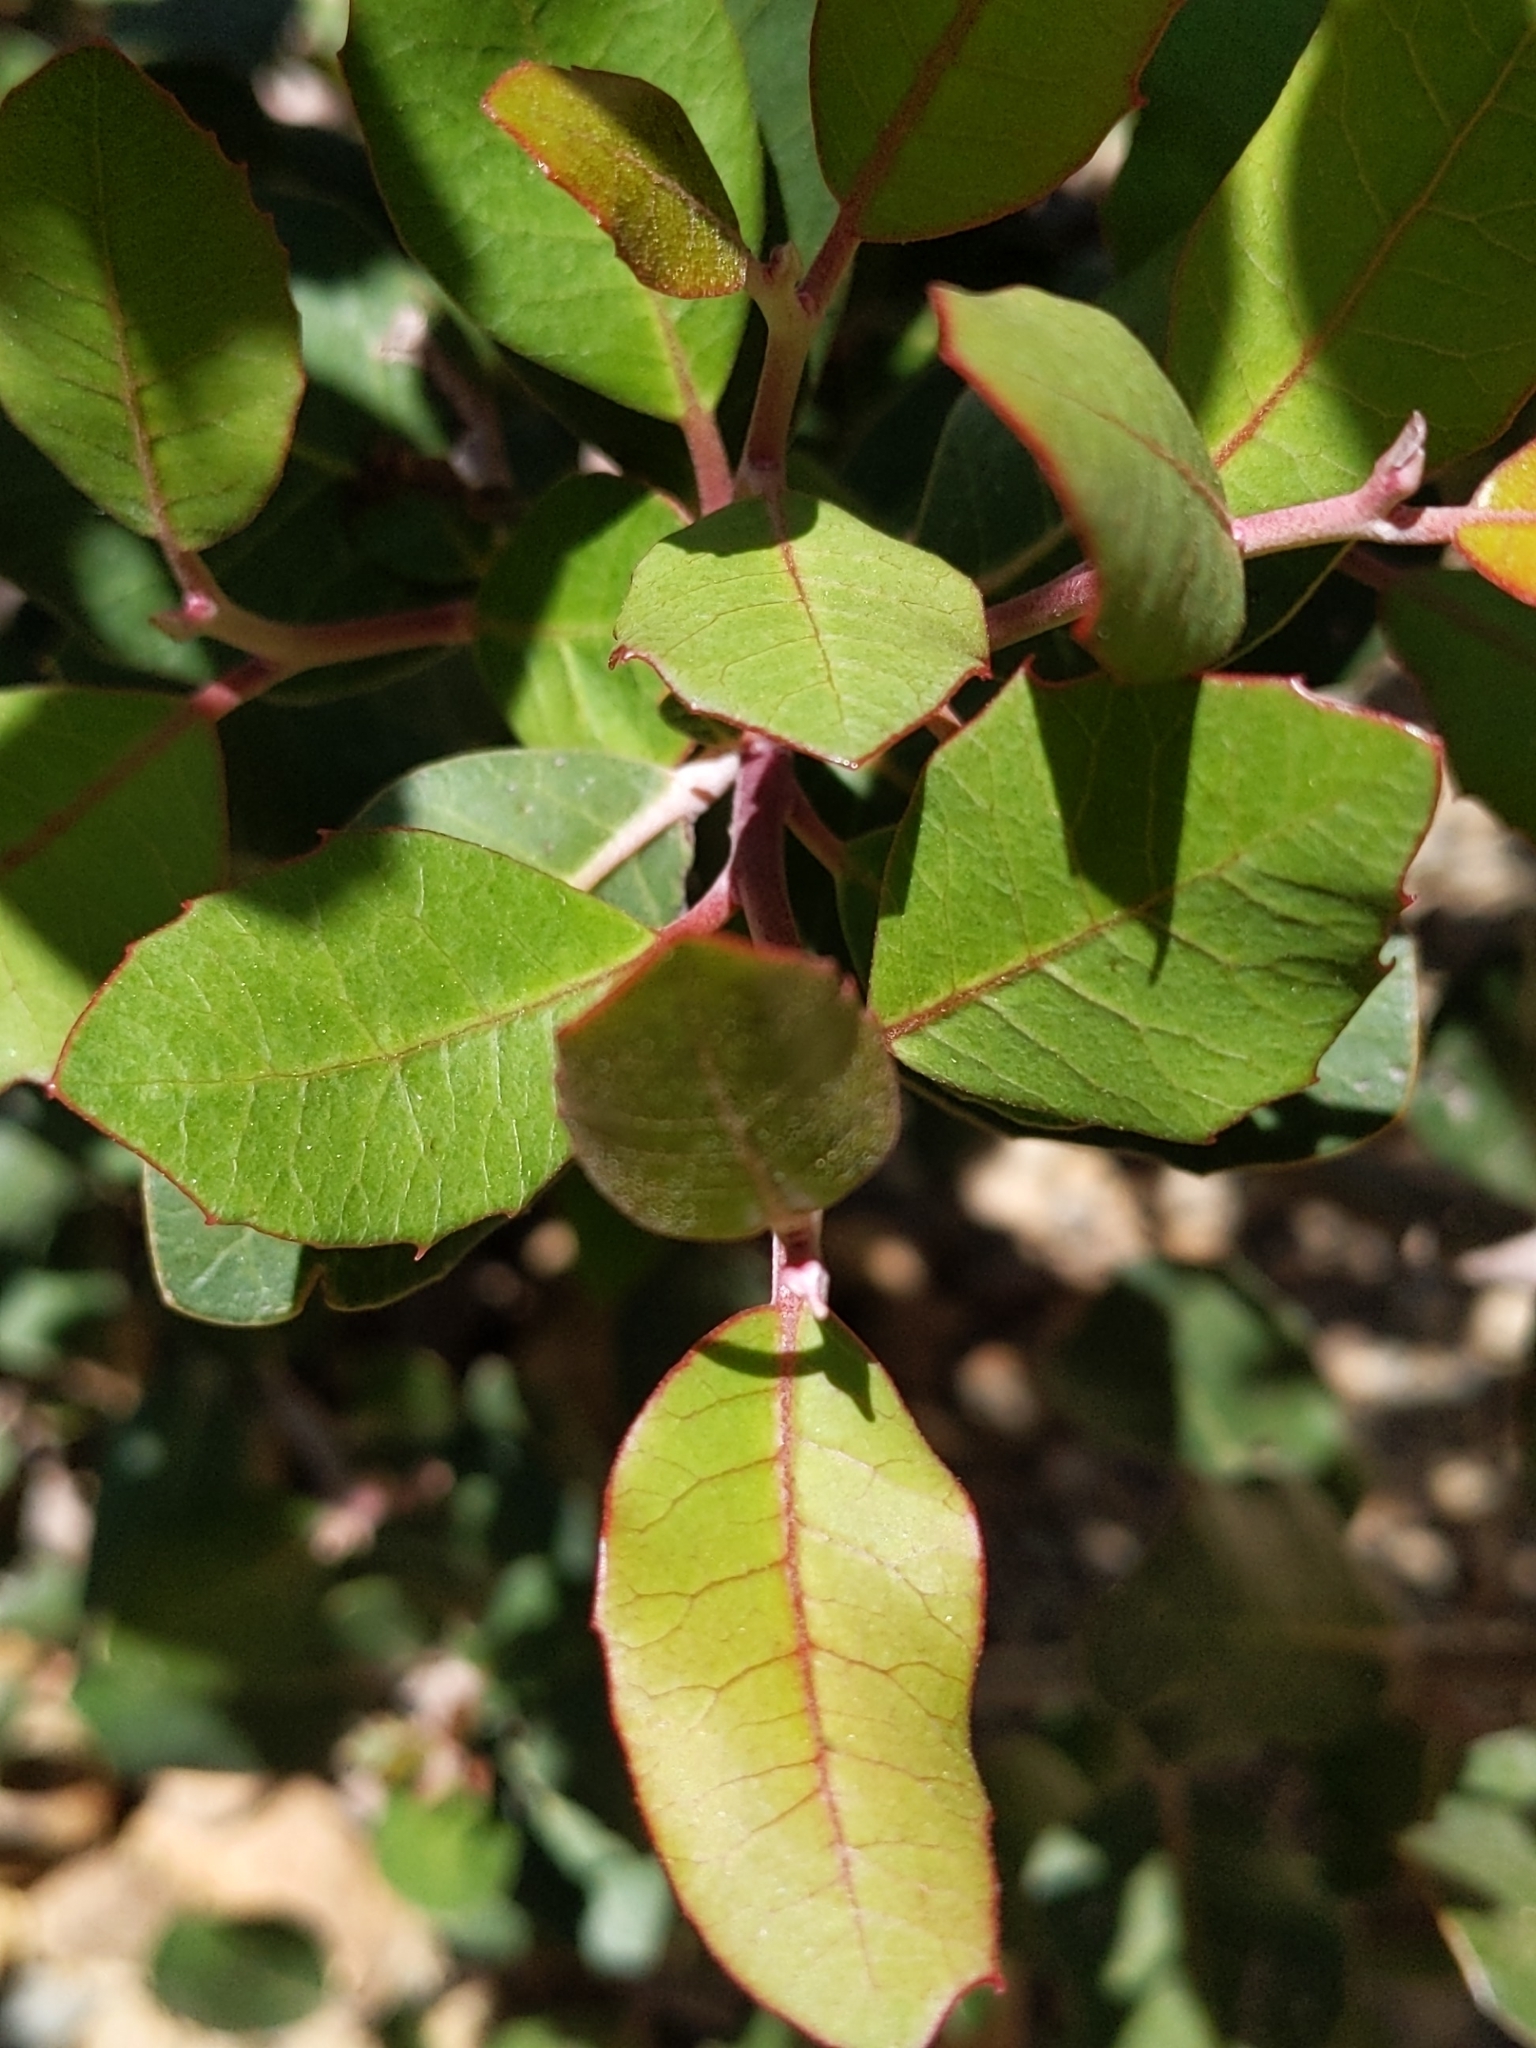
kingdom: Plantae
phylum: Tracheophyta
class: Magnoliopsida
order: Sapindales
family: Anacardiaceae
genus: Rhus
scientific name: Rhus integrifolia
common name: Lemonade sumac
